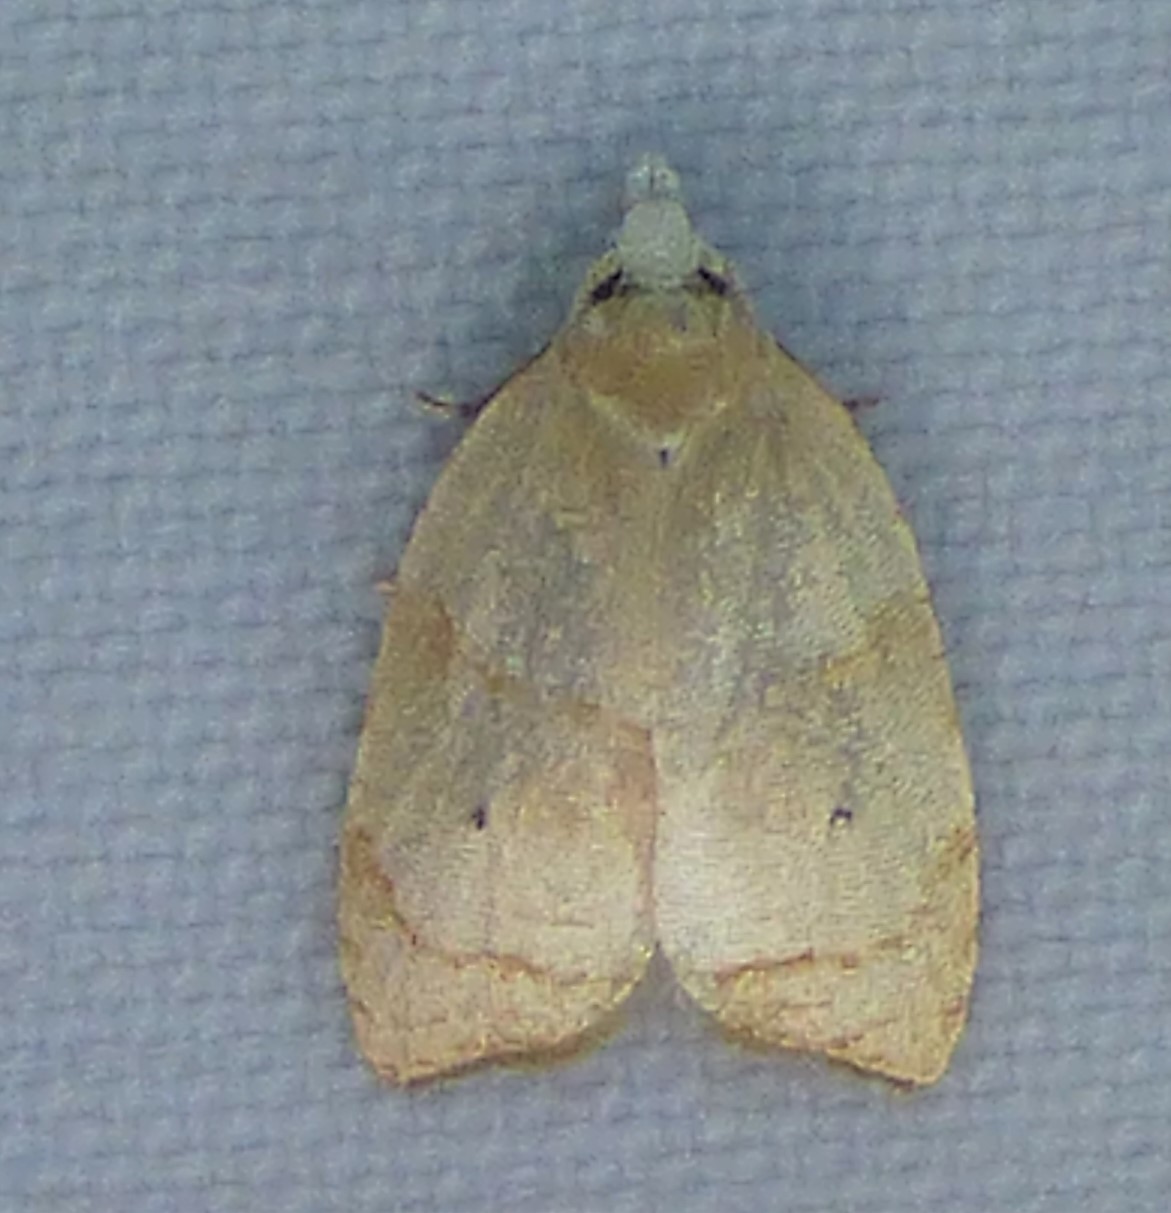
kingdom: Animalia
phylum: Arthropoda
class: Insecta
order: Lepidoptera
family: Tortricidae
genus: Coelostathma
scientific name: Coelostathma discopunctana
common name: Batman moth
